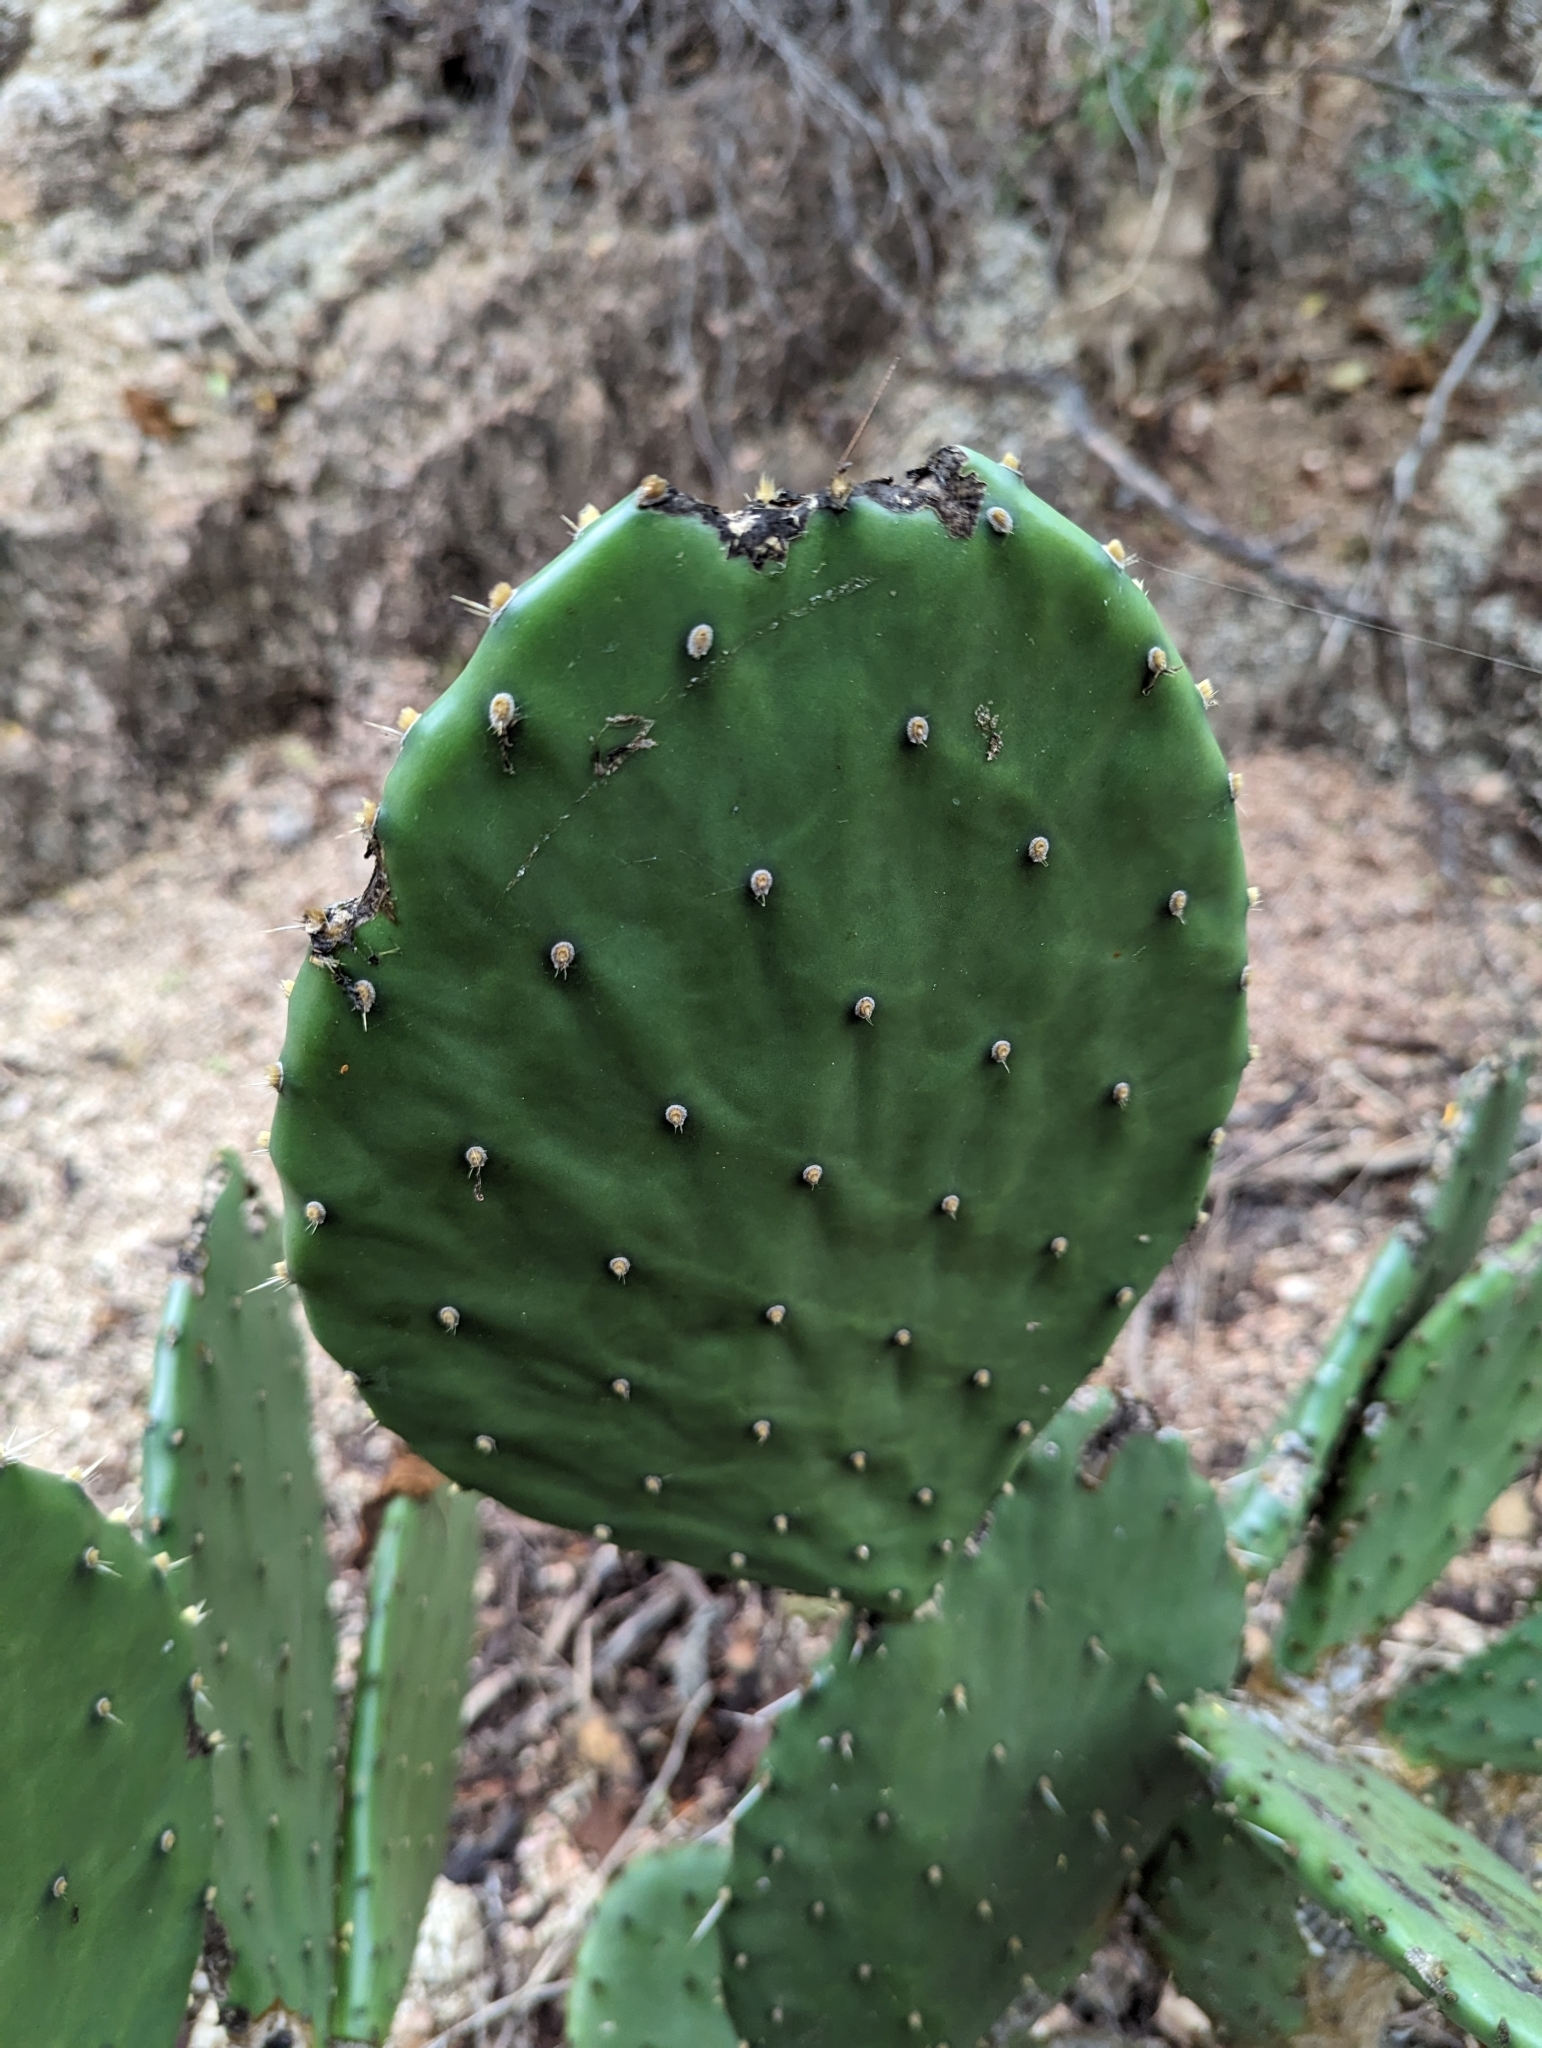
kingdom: Plantae
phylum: Tracheophyta
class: Magnoliopsida
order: Caryophyllales
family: Cactaceae
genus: Opuntia
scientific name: Opuntia bravoana
